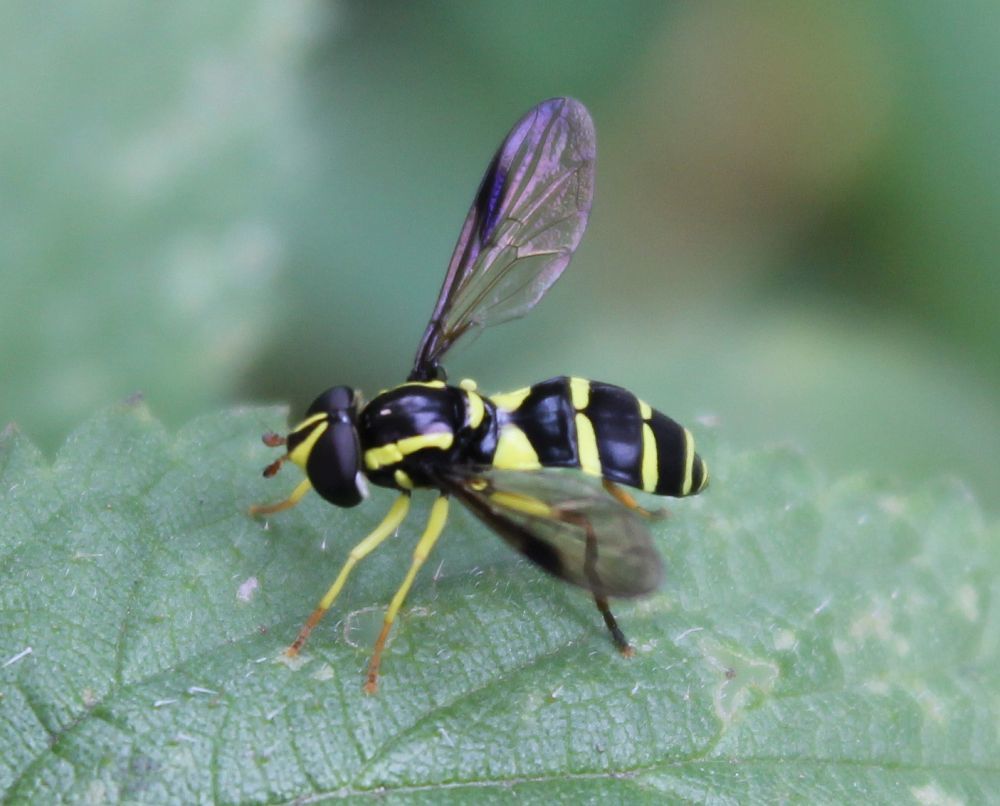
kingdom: Animalia
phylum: Arthropoda
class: Insecta
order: Diptera
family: Syrphidae
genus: Philhelius
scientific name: Philhelius pedissequum
